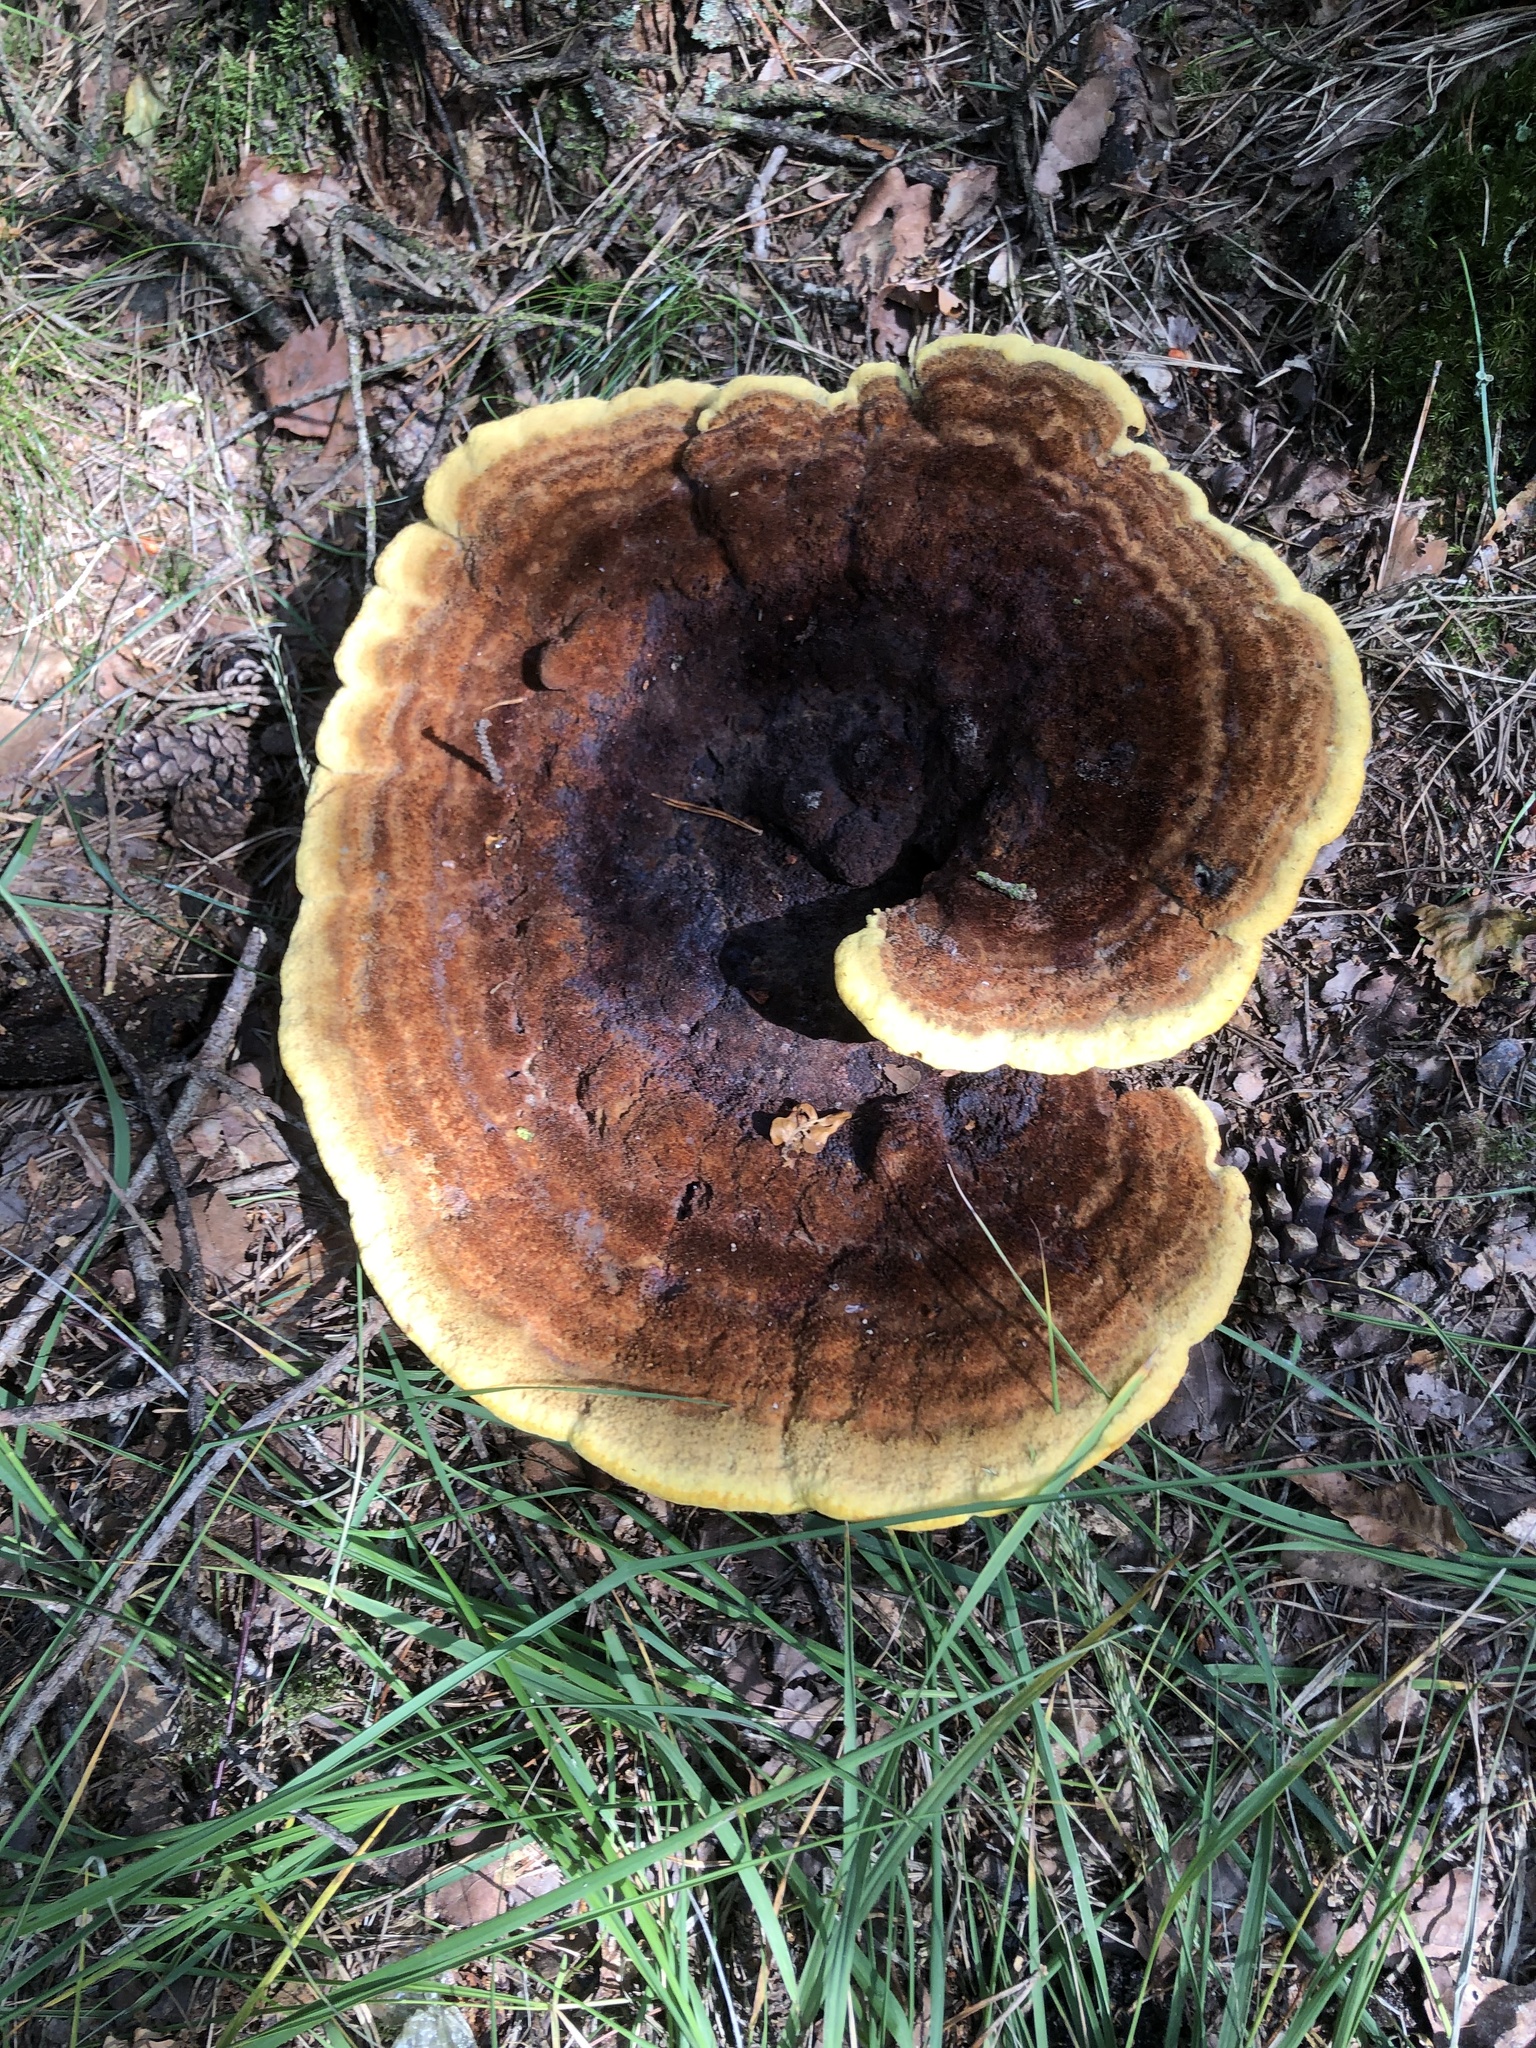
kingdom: Fungi
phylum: Basidiomycota
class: Agaricomycetes
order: Polyporales
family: Laetiporaceae
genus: Phaeolus
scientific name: Phaeolus schweinitzii
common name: Dyer's mazegill
